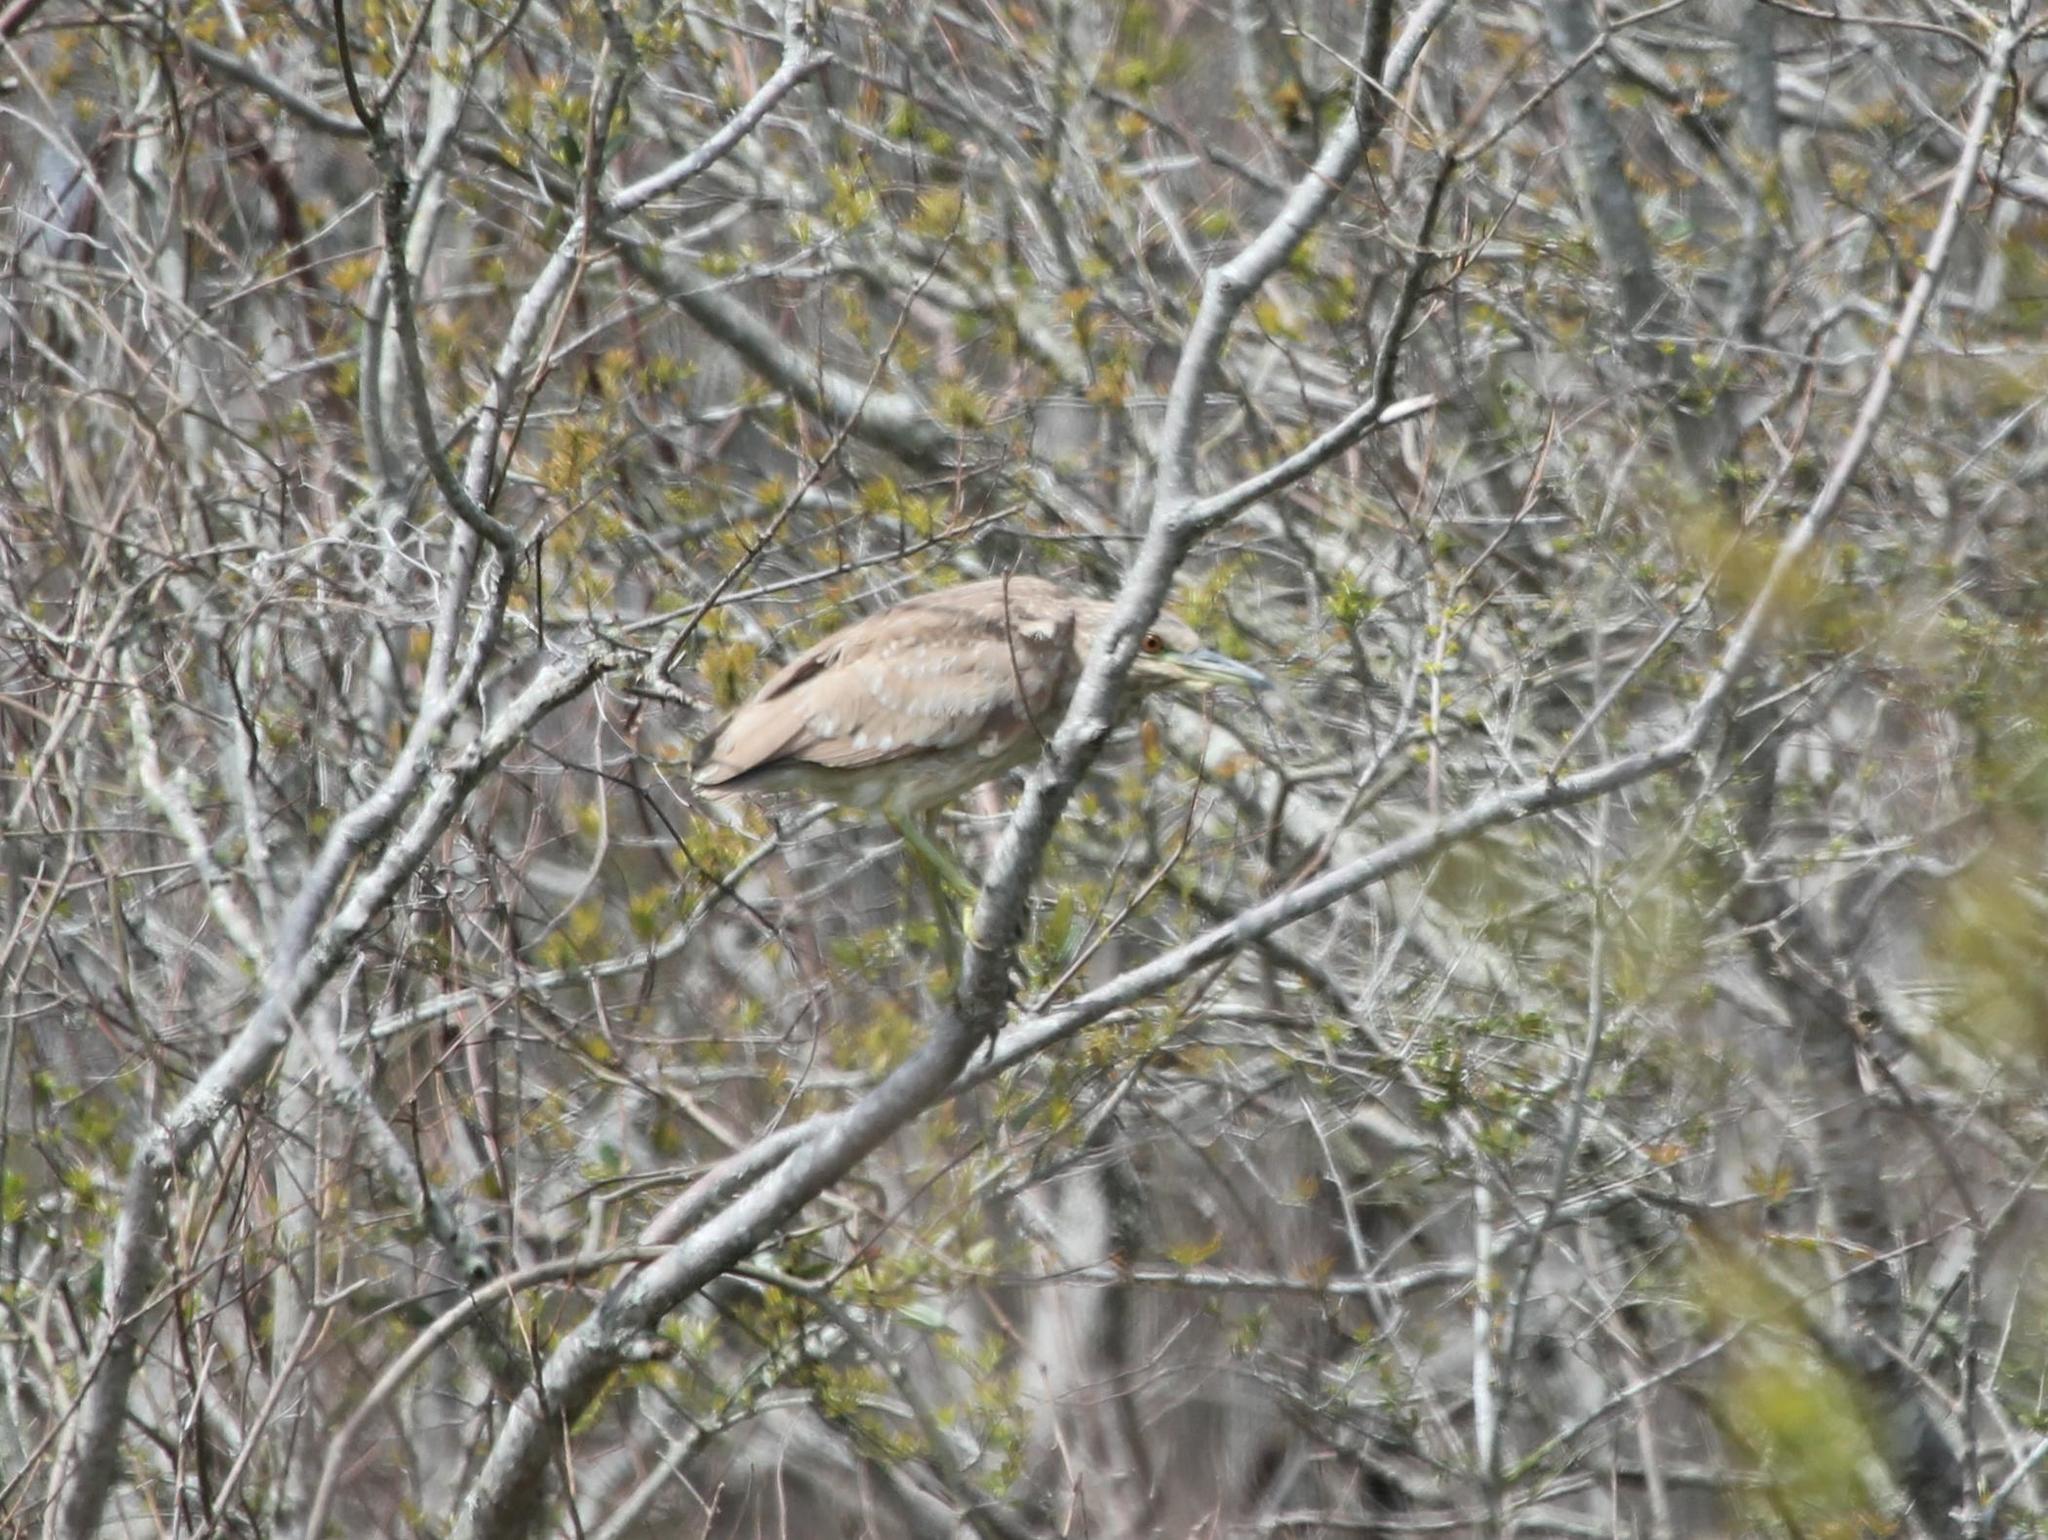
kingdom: Animalia
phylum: Chordata
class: Aves
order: Pelecaniformes
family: Ardeidae
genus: Nycticorax
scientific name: Nycticorax nycticorax
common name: Black-crowned night heron
